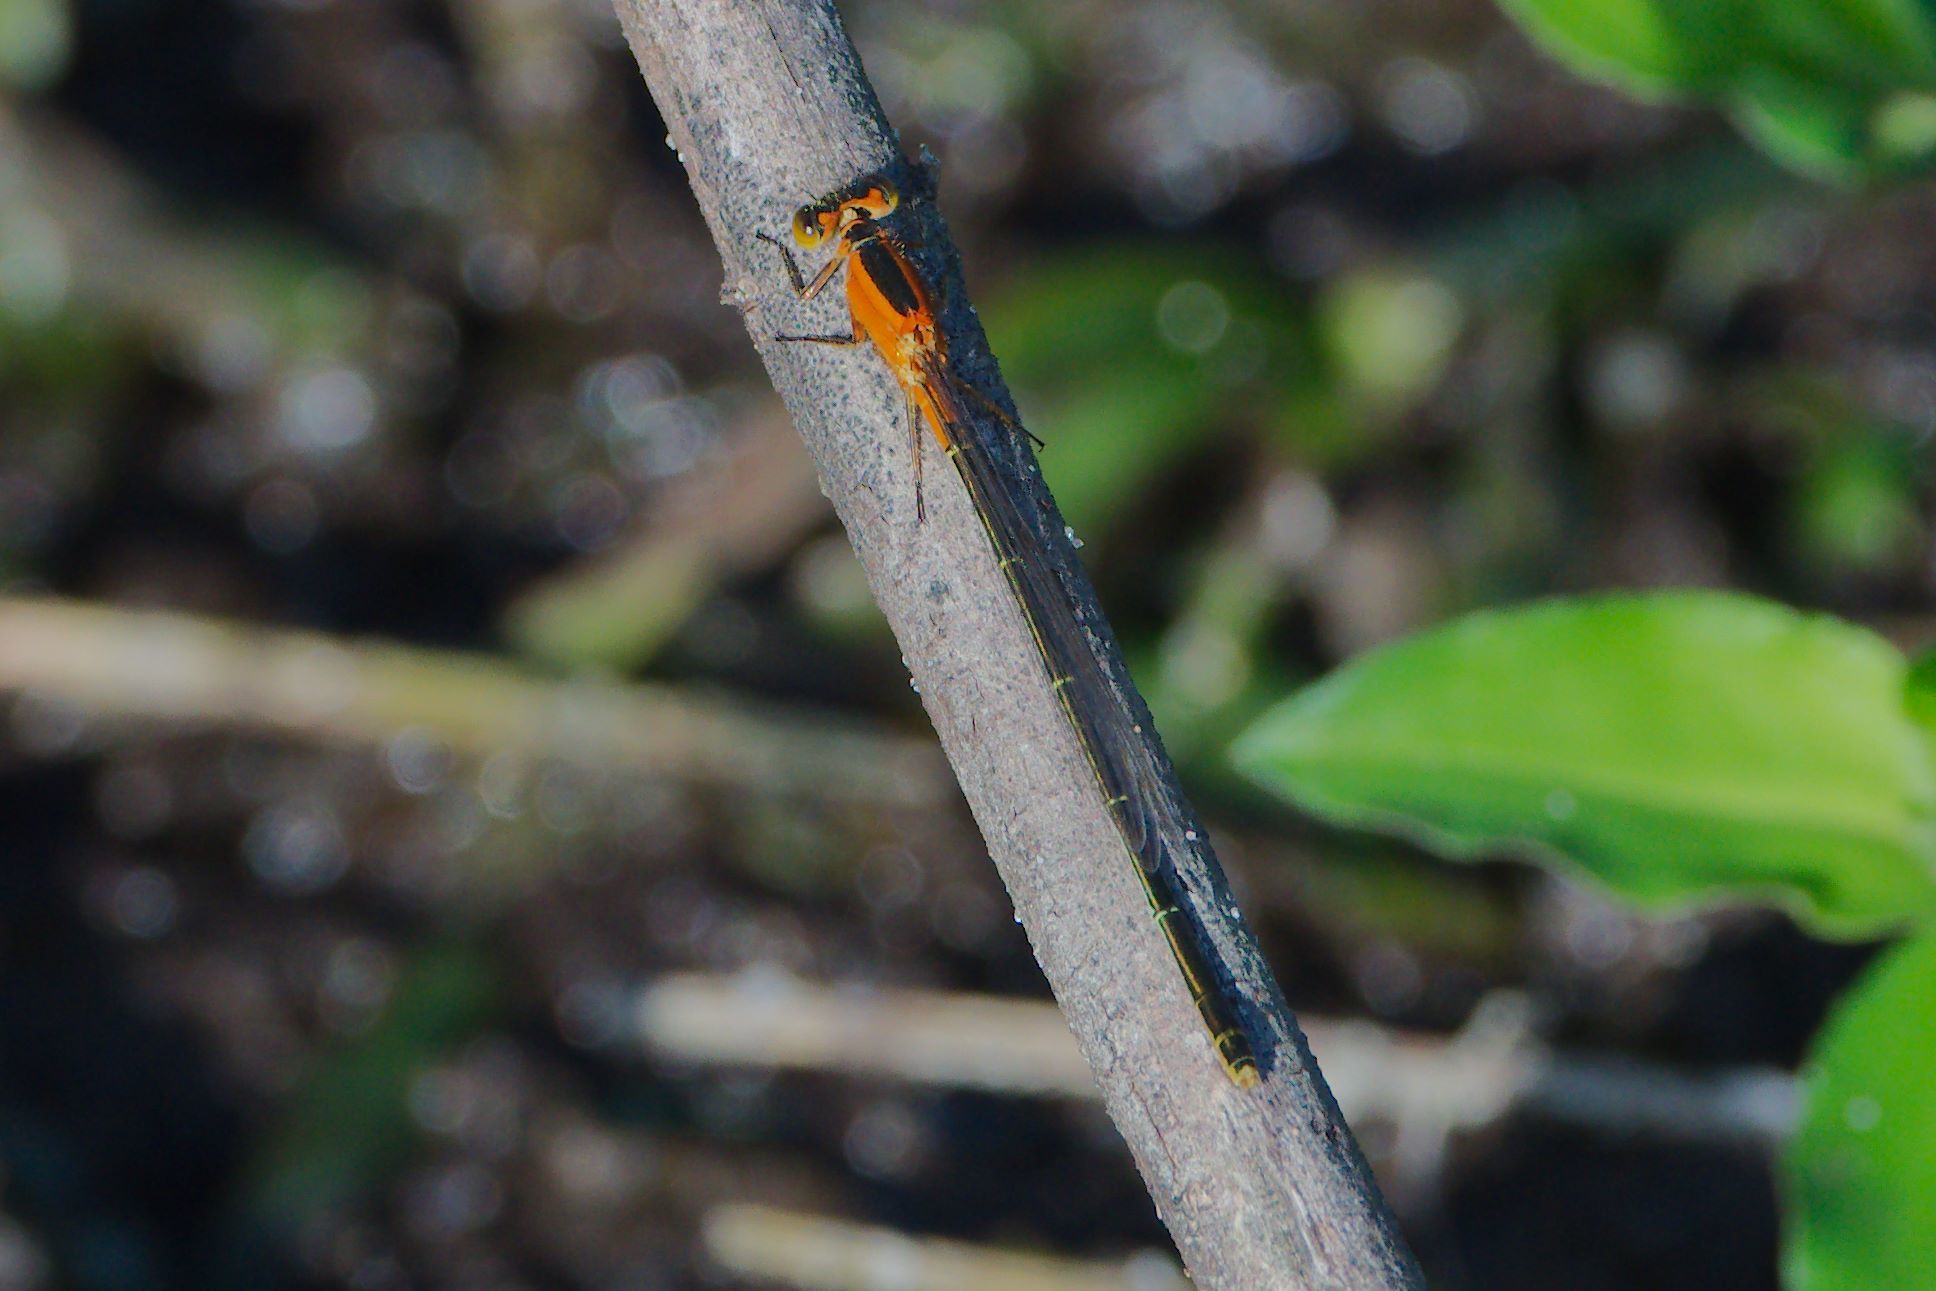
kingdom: Animalia
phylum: Arthropoda
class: Insecta
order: Odonata
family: Coenagrionidae
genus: Ischnura
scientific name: Ischnura ramburii
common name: Rambur's forktail
